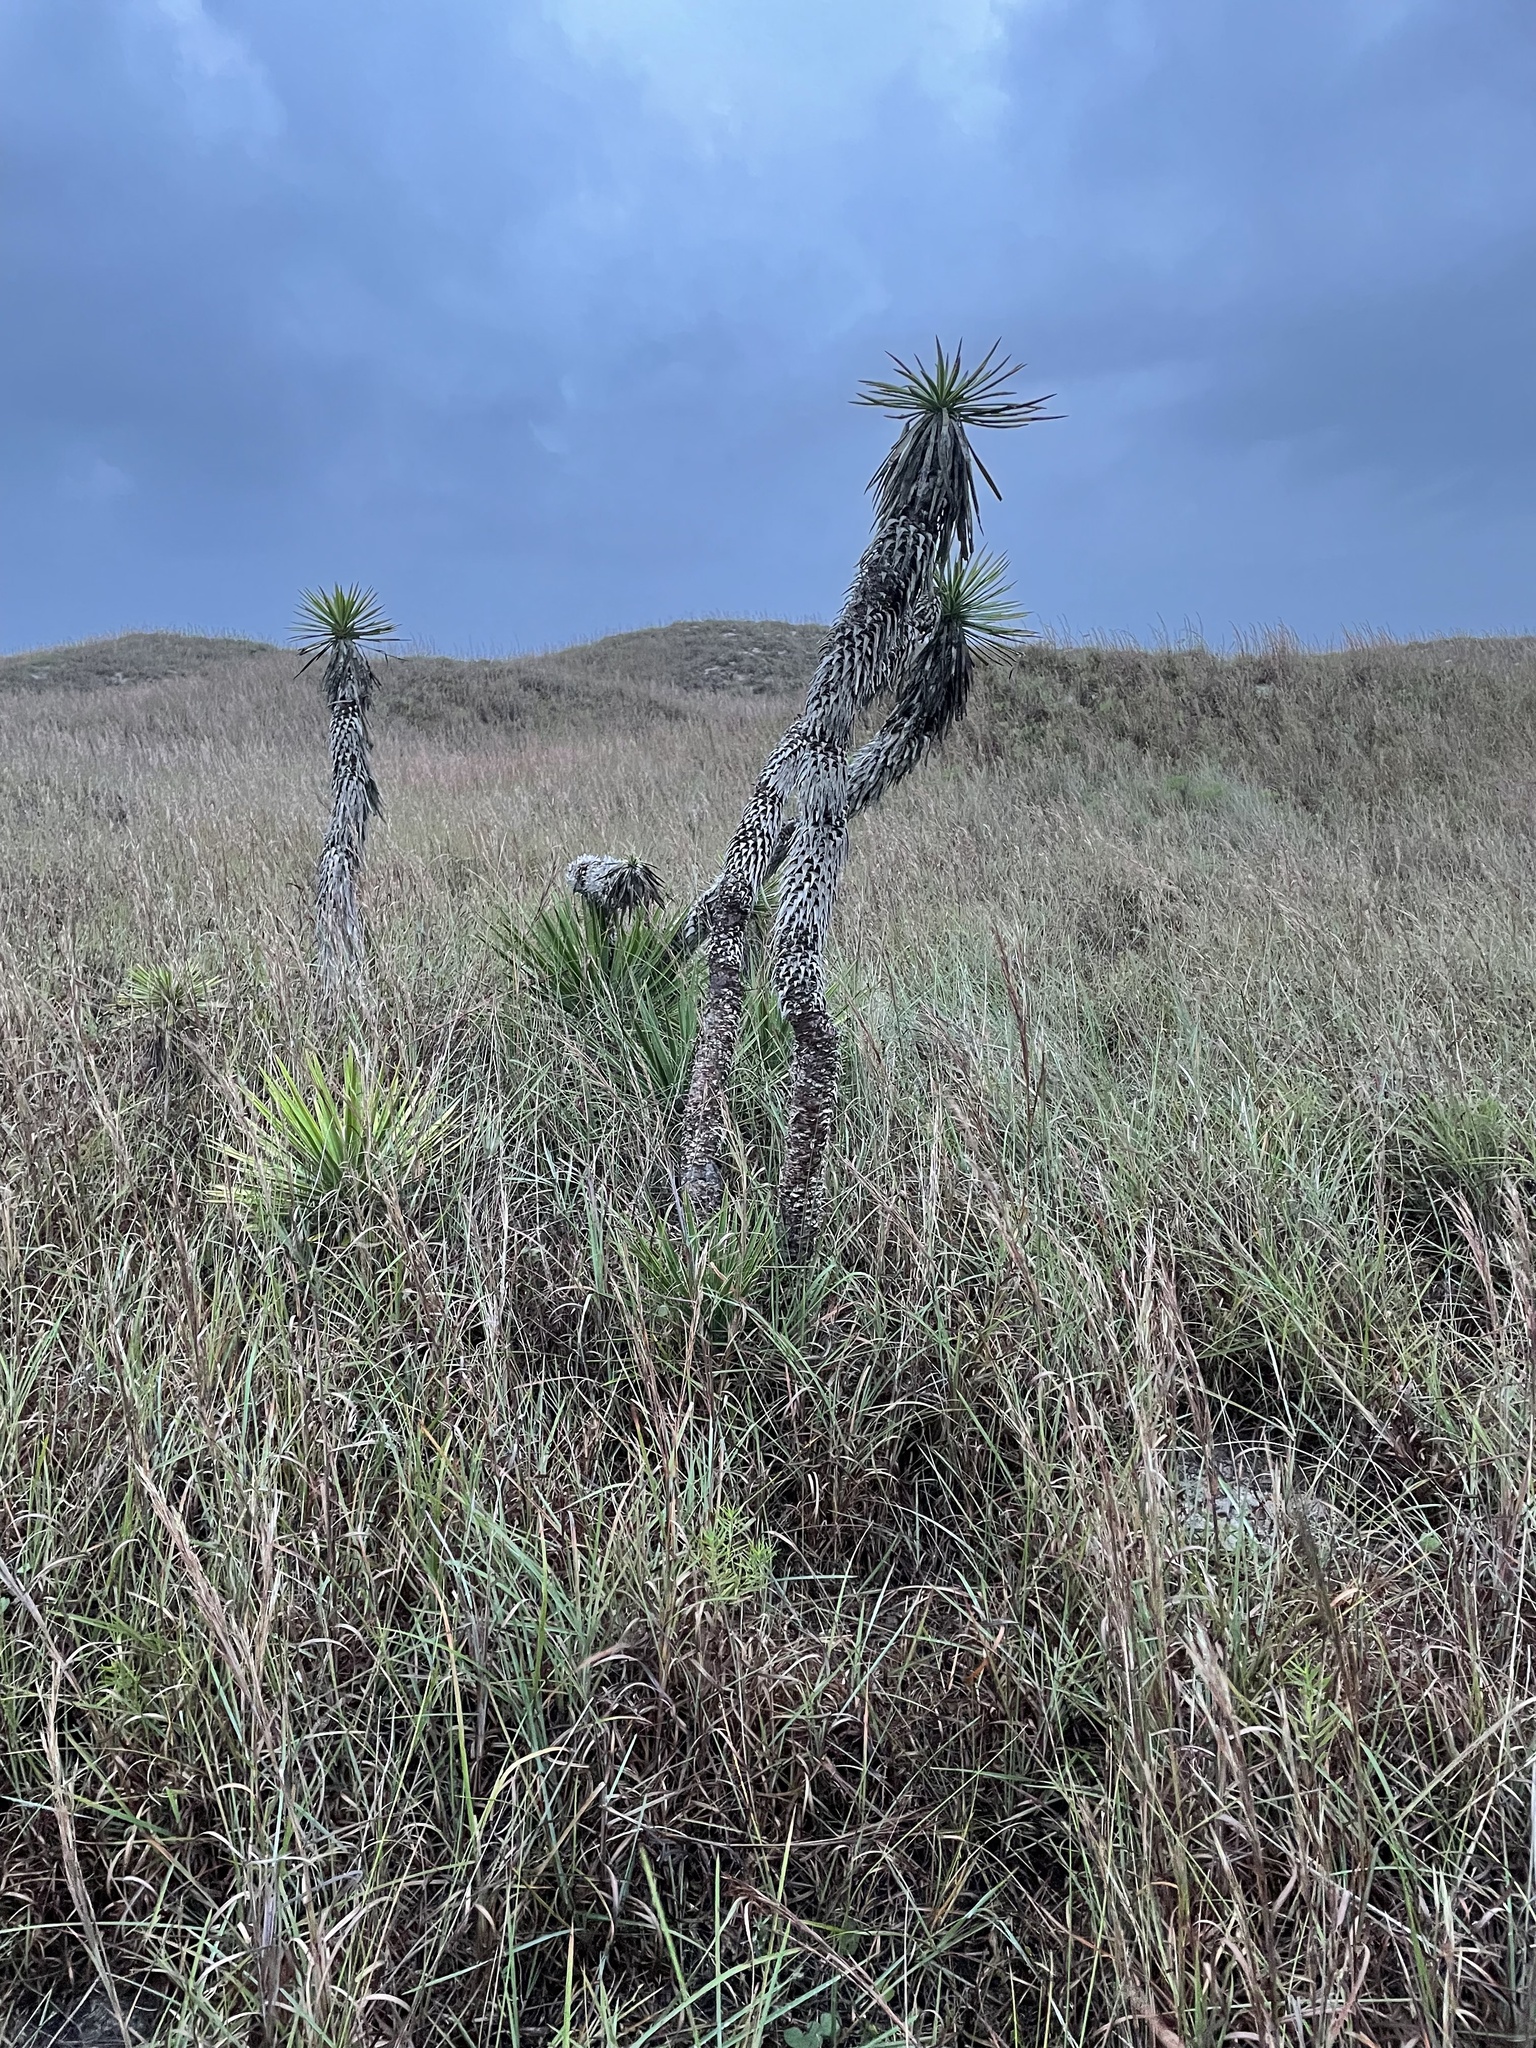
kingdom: Plantae
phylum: Tracheophyta
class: Liliopsida
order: Asparagales
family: Asparagaceae
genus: Yucca
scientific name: Yucca aloifolia
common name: Aloe yucca
